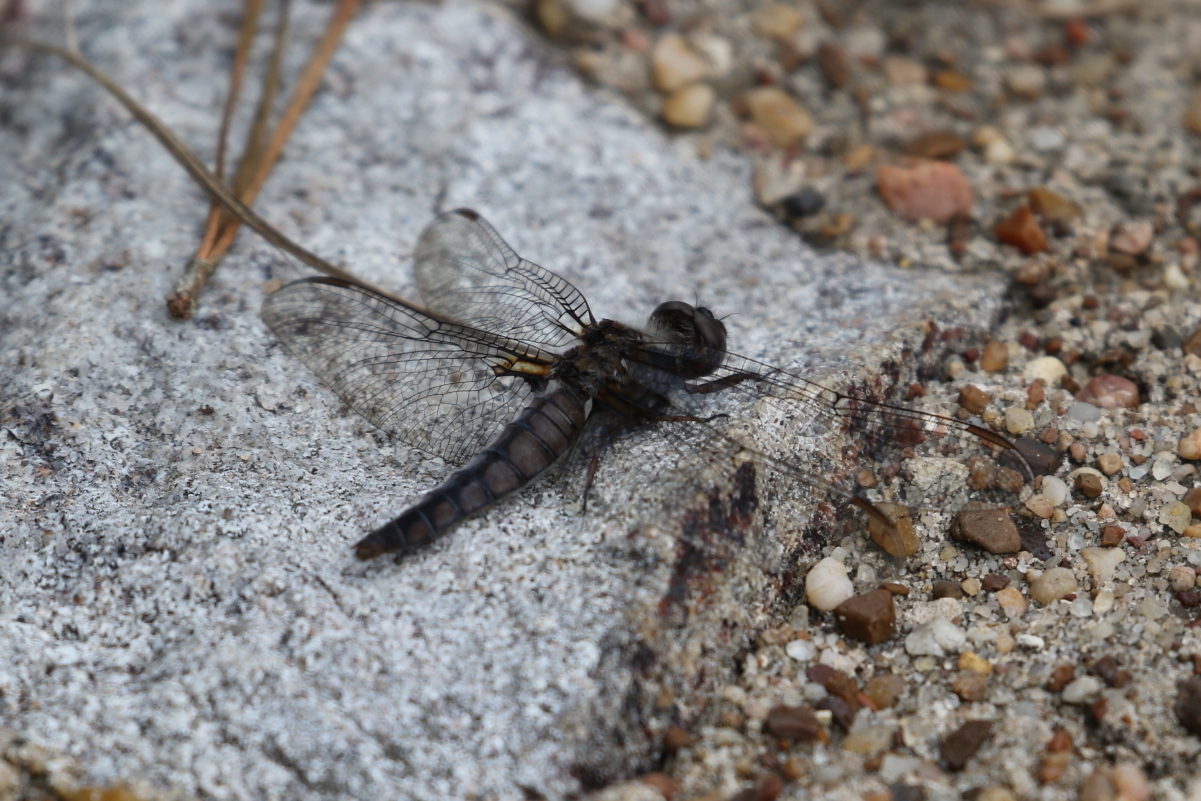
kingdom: Animalia
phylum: Arthropoda
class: Insecta
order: Odonata
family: Libellulidae
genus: Ladona
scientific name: Ladona deplanata
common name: Blue corporal
